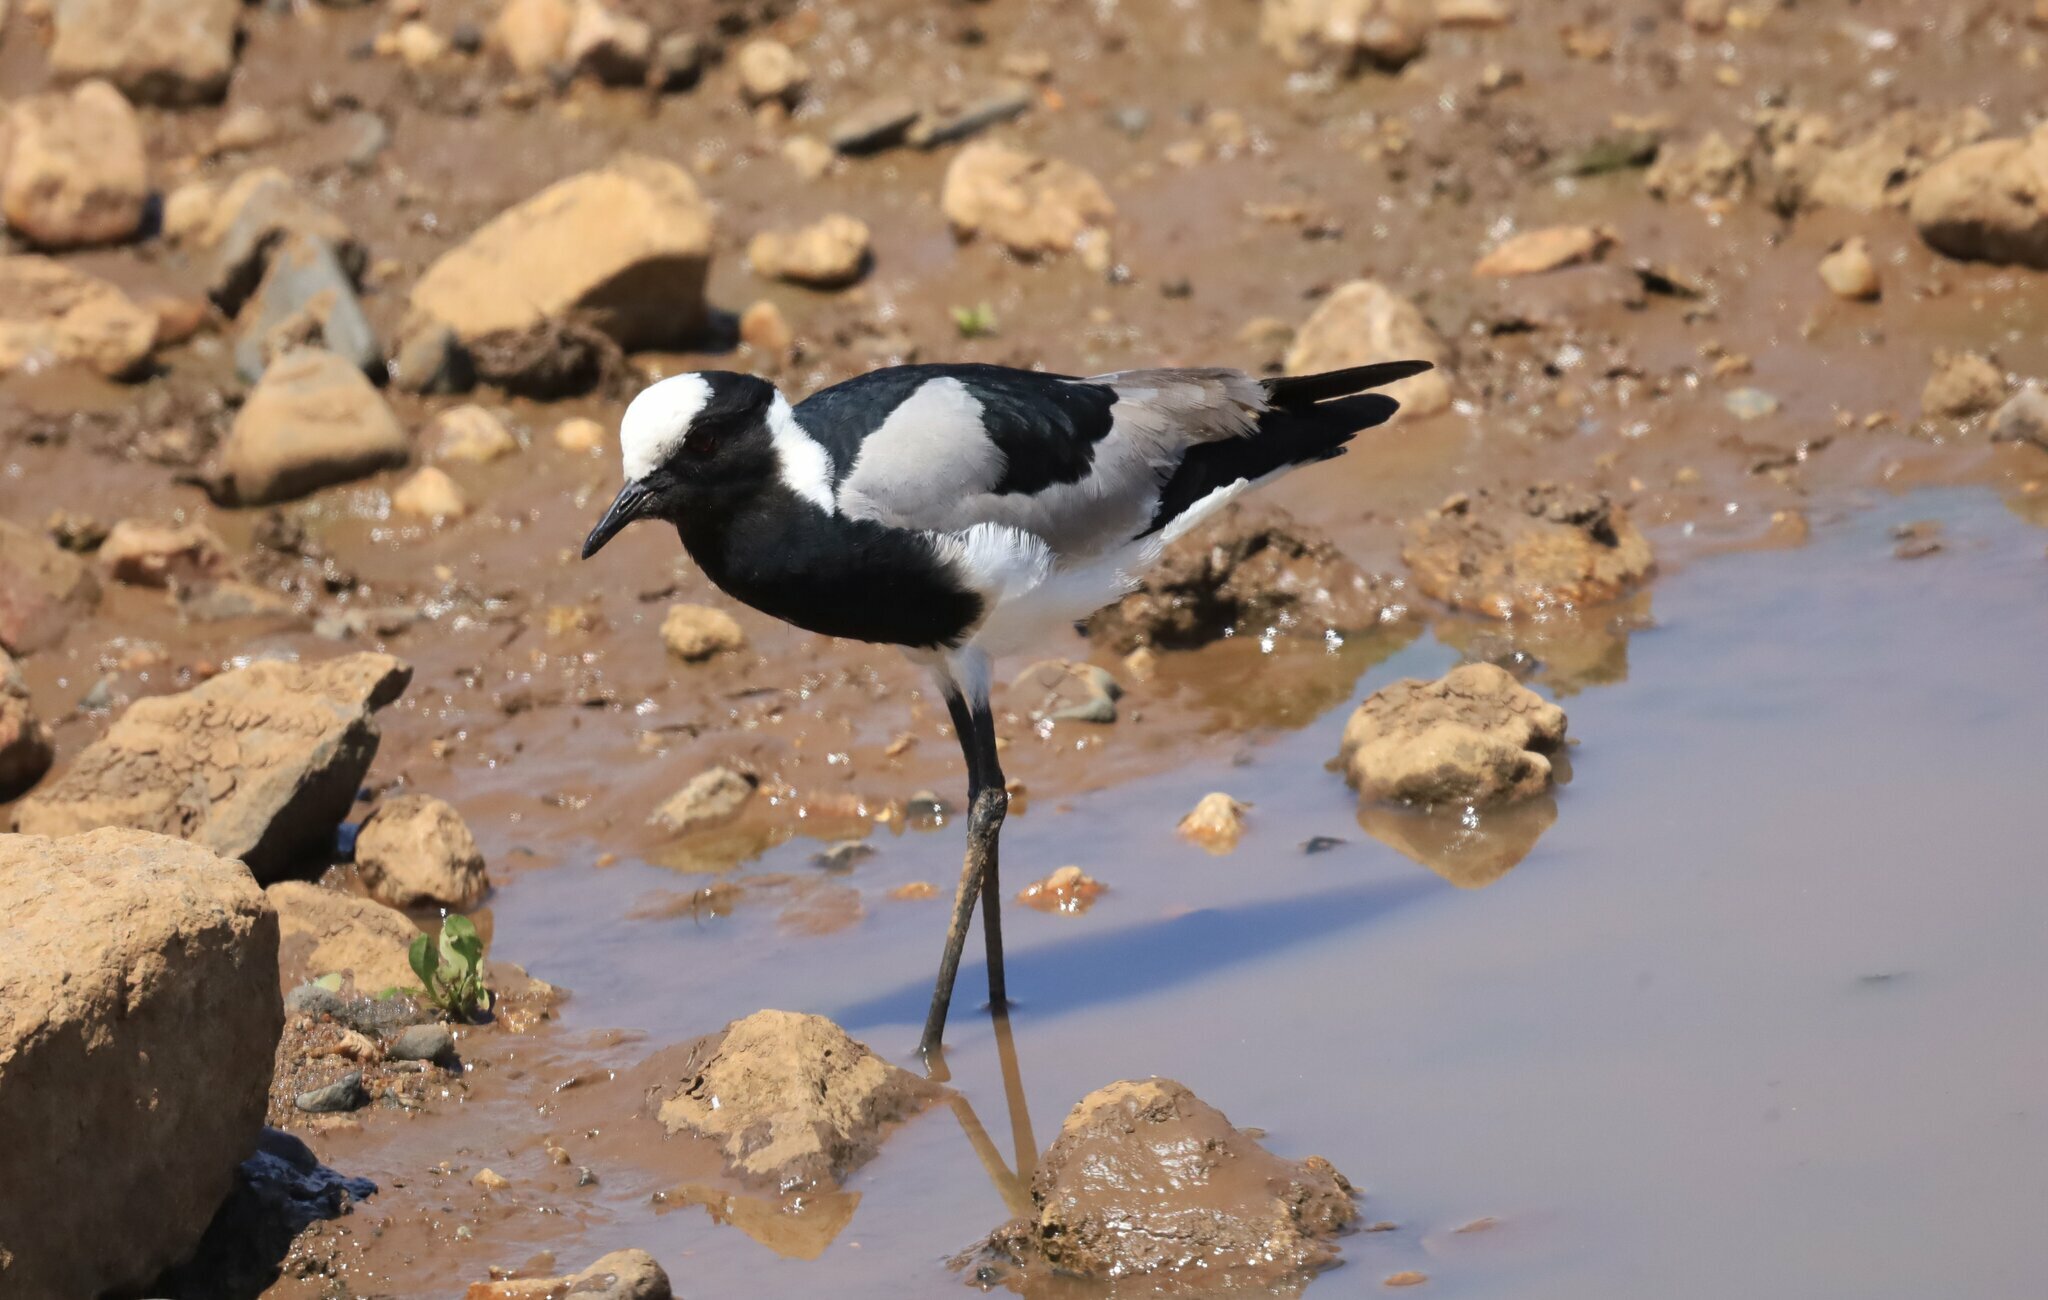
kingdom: Animalia
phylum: Chordata
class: Aves
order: Charadriiformes
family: Charadriidae
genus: Vanellus
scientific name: Vanellus armatus
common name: Blacksmith lapwing
